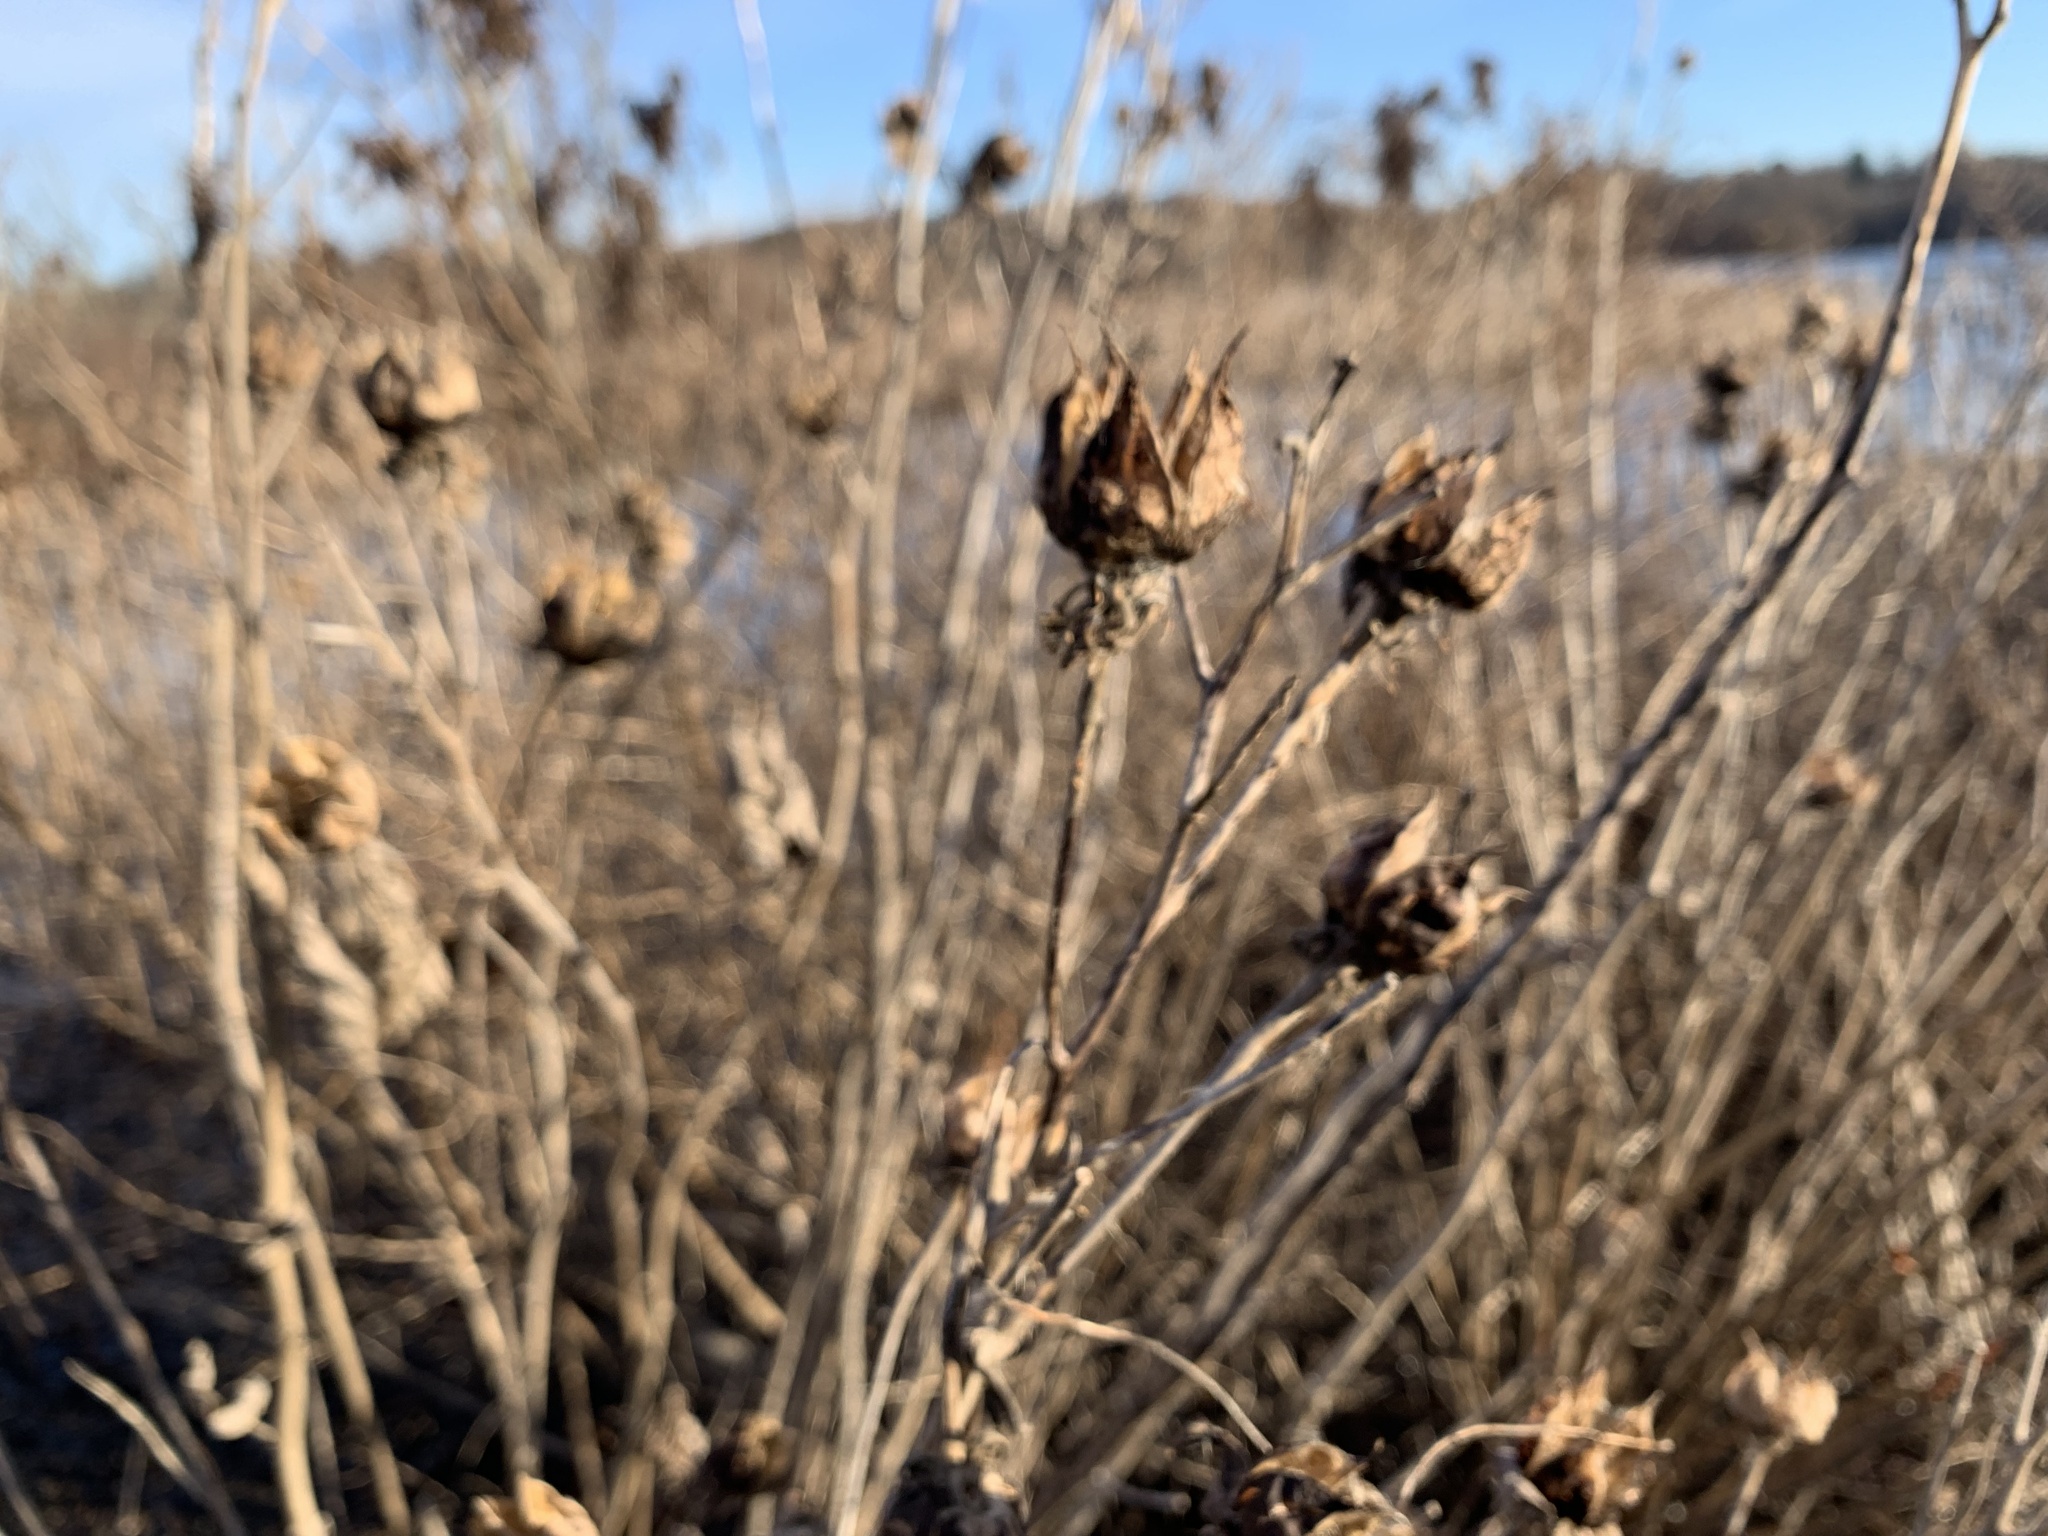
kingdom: Plantae
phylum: Tracheophyta
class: Magnoliopsida
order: Malvales
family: Malvaceae
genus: Hibiscus
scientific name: Hibiscus moscheutos
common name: Common rose-mallow
